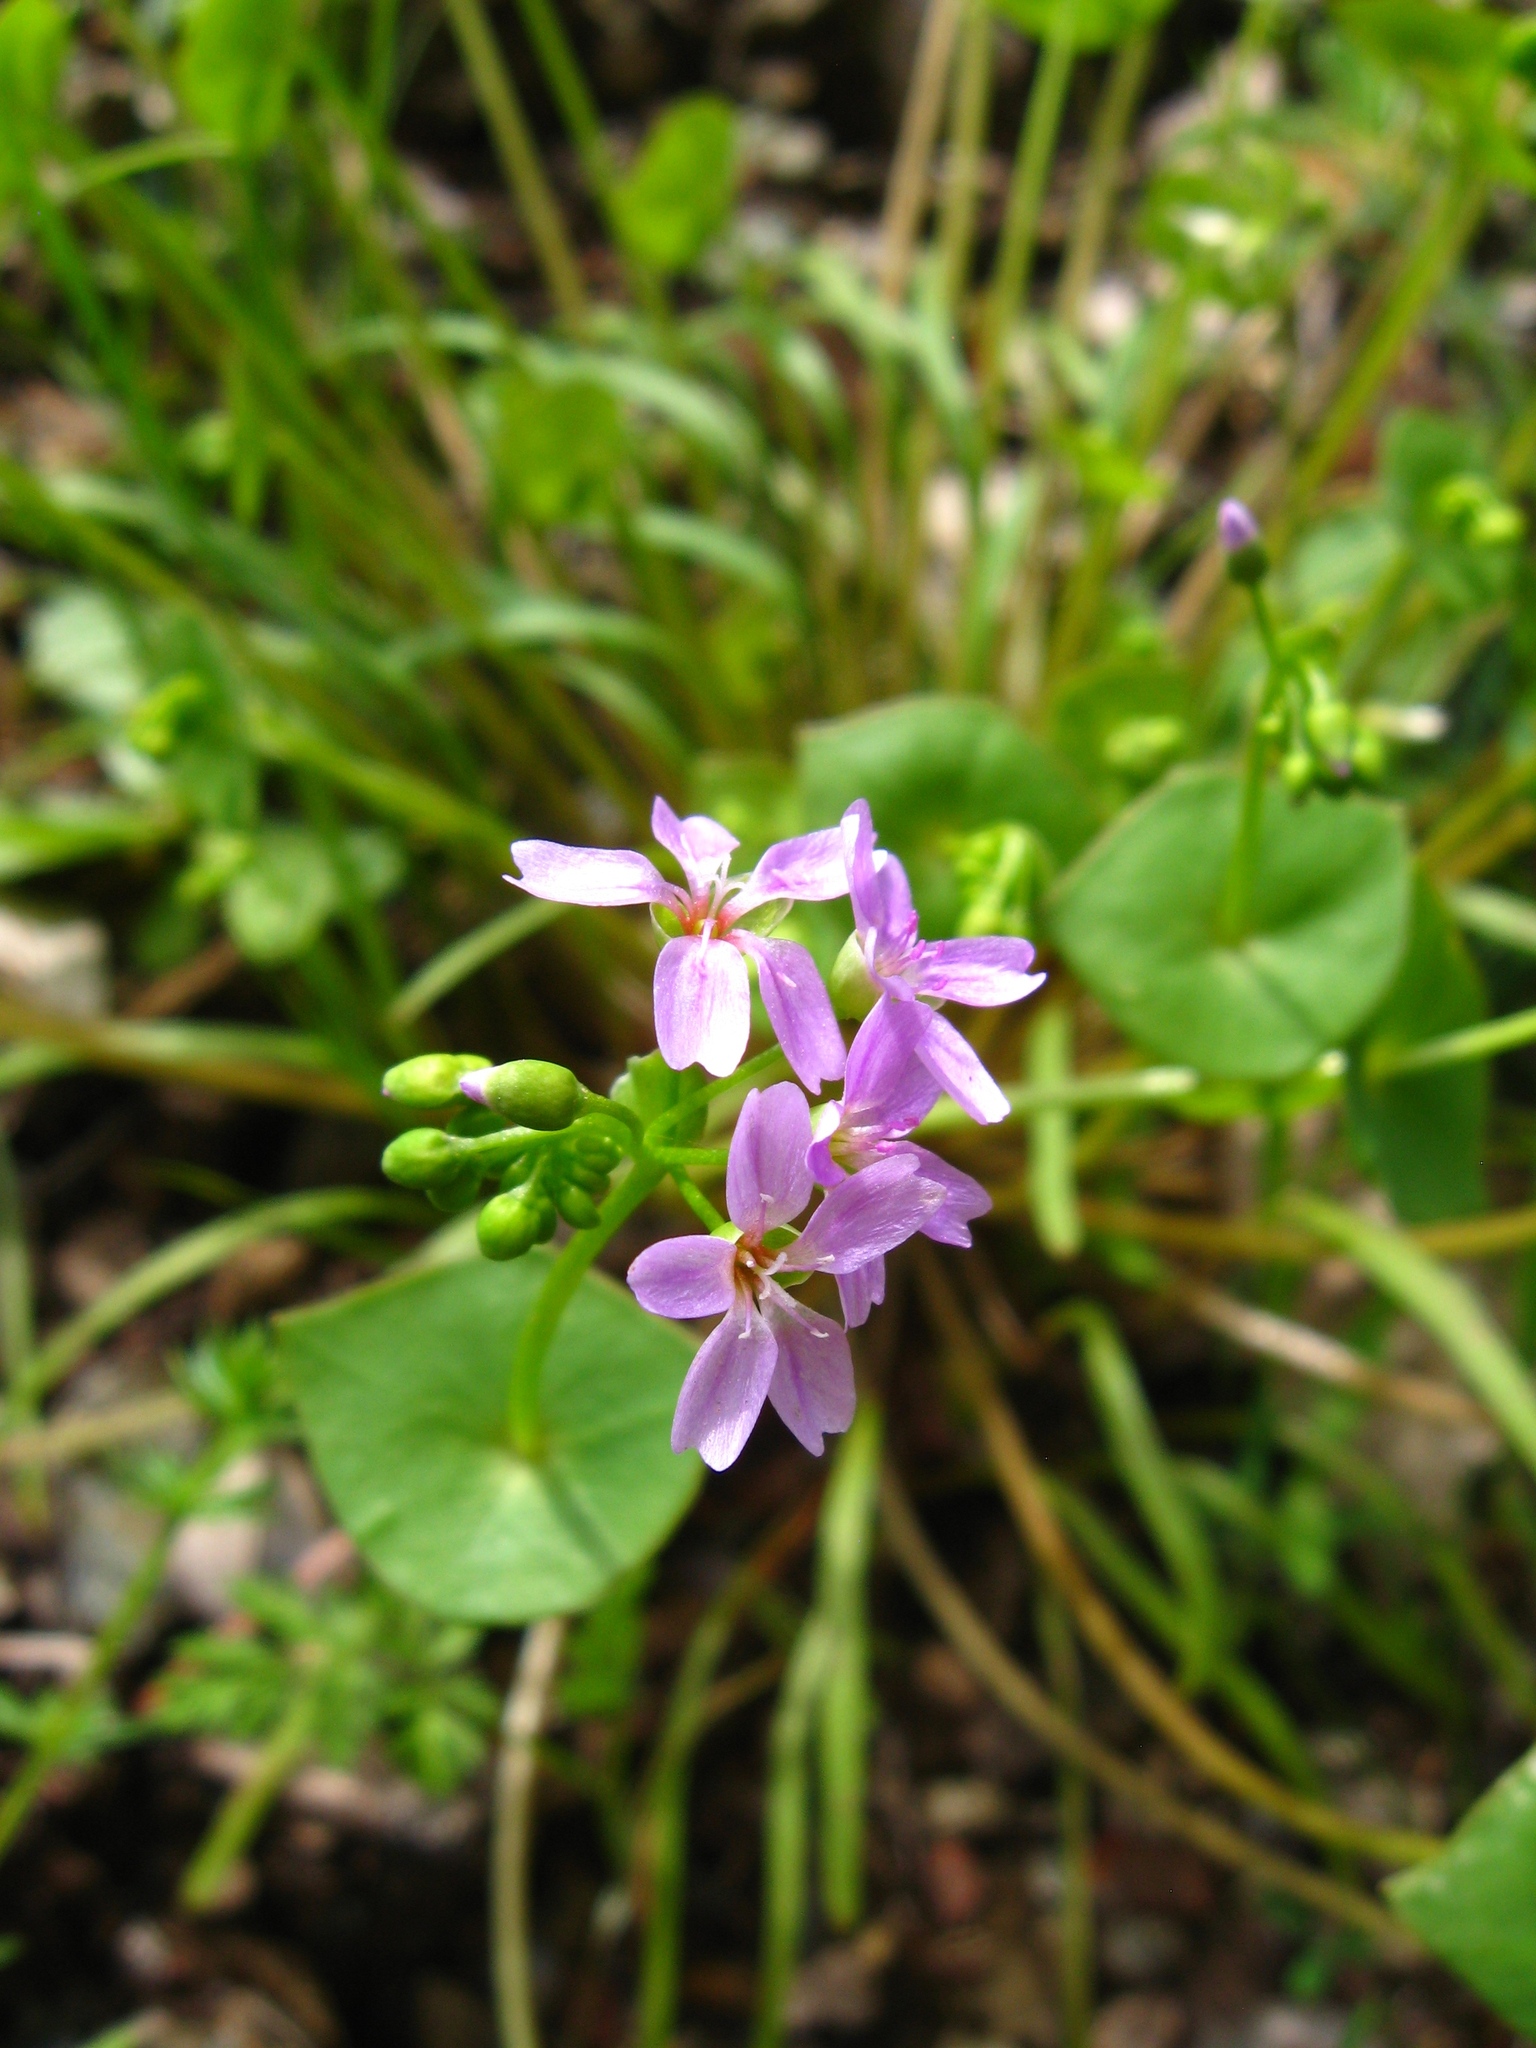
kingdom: Plantae
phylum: Tracheophyta
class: Magnoliopsida
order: Caryophyllales
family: Montiaceae
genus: Claytonia
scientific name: Claytonia parviflora
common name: Indian-lettuce
